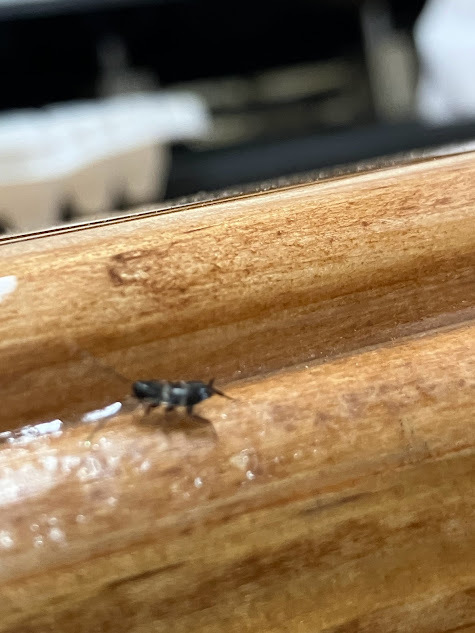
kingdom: Animalia
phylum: Arthropoda
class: Insecta
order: Blattodea
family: Blattidae
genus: Periplaneta
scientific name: Periplaneta fuliginosa
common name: Smokeybrown cockroad
